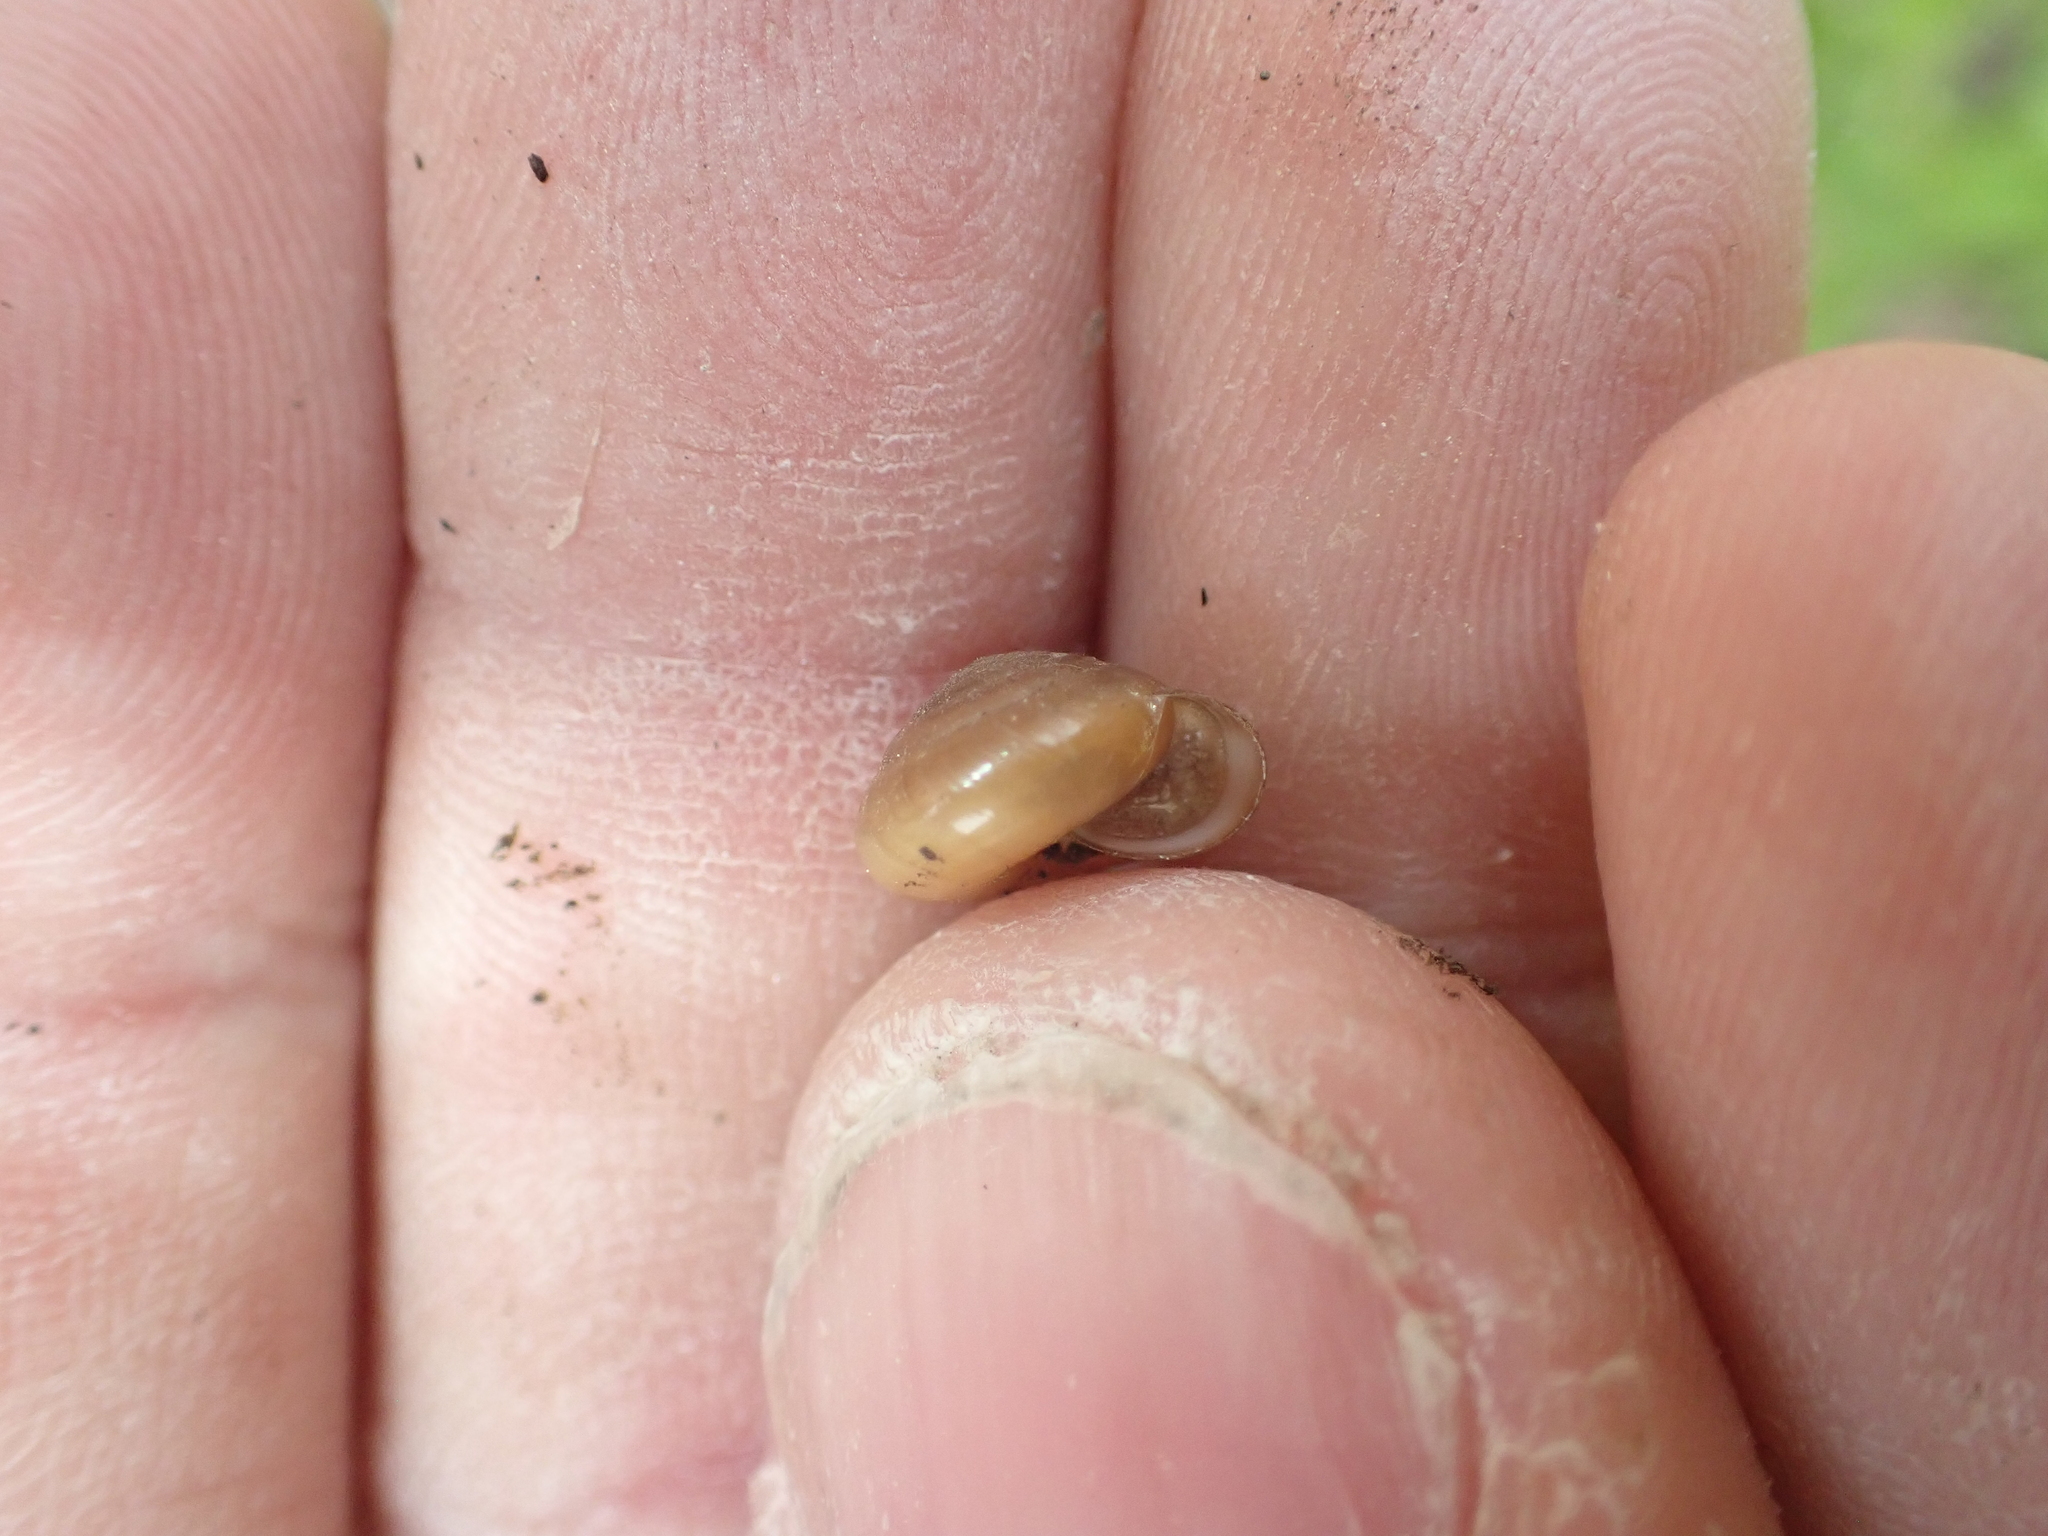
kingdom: Animalia
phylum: Mollusca
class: Gastropoda
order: Stylommatophora
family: Gastrodontidae
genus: Ventridens
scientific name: Ventridens ligera
